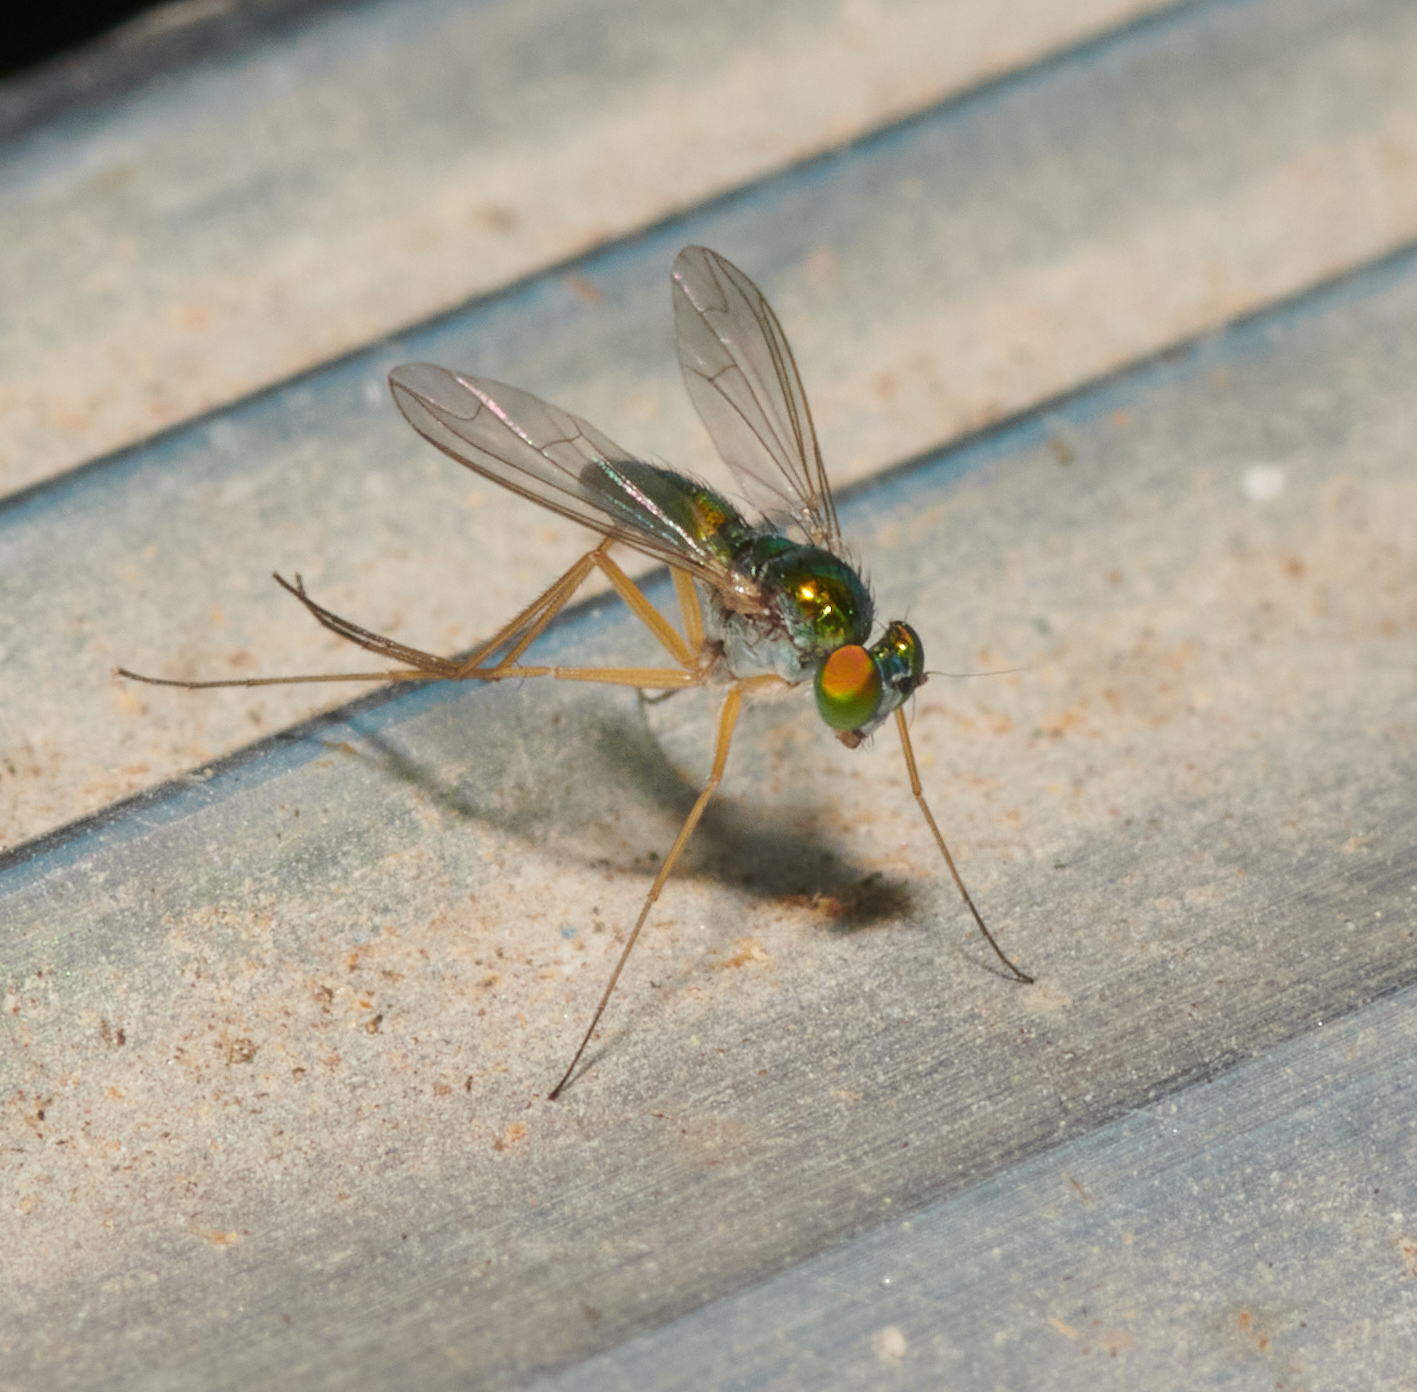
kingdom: Animalia
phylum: Arthropoda
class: Insecta
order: Diptera
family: Dolichopodidae
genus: Amblypsilopus
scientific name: Amblypsilopus scintillans
